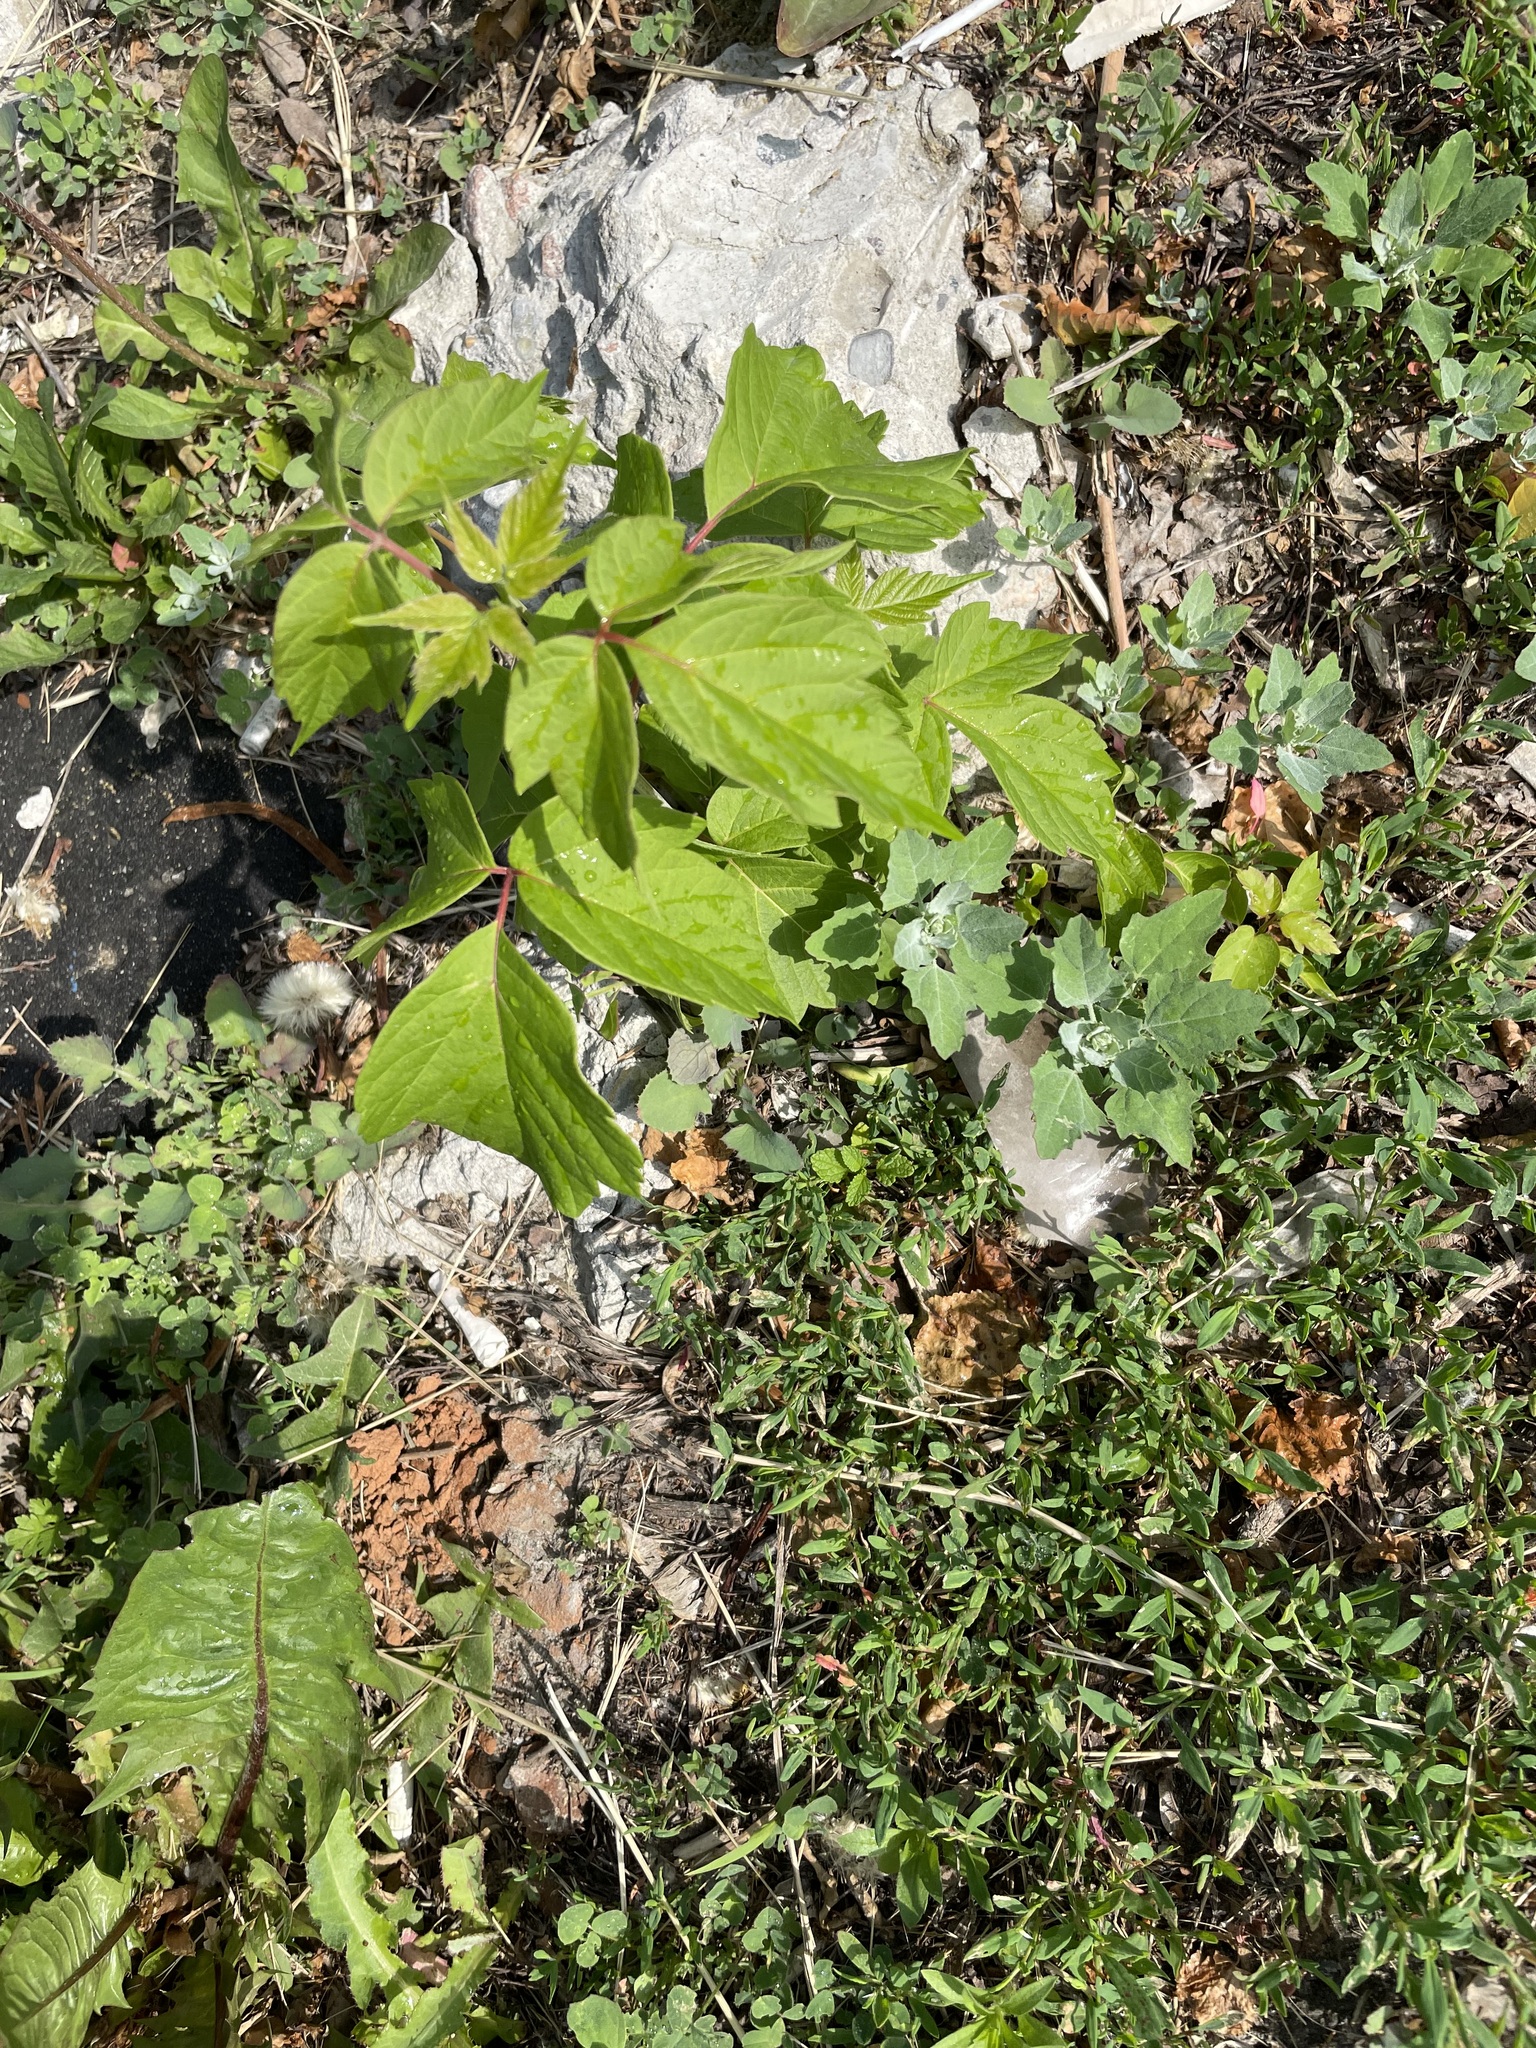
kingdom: Plantae
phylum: Tracheophyta
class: Magnoliopsida
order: Sapindales
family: Sapindaceae
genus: Acer
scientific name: Acer negundo
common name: Ashleaf maple
